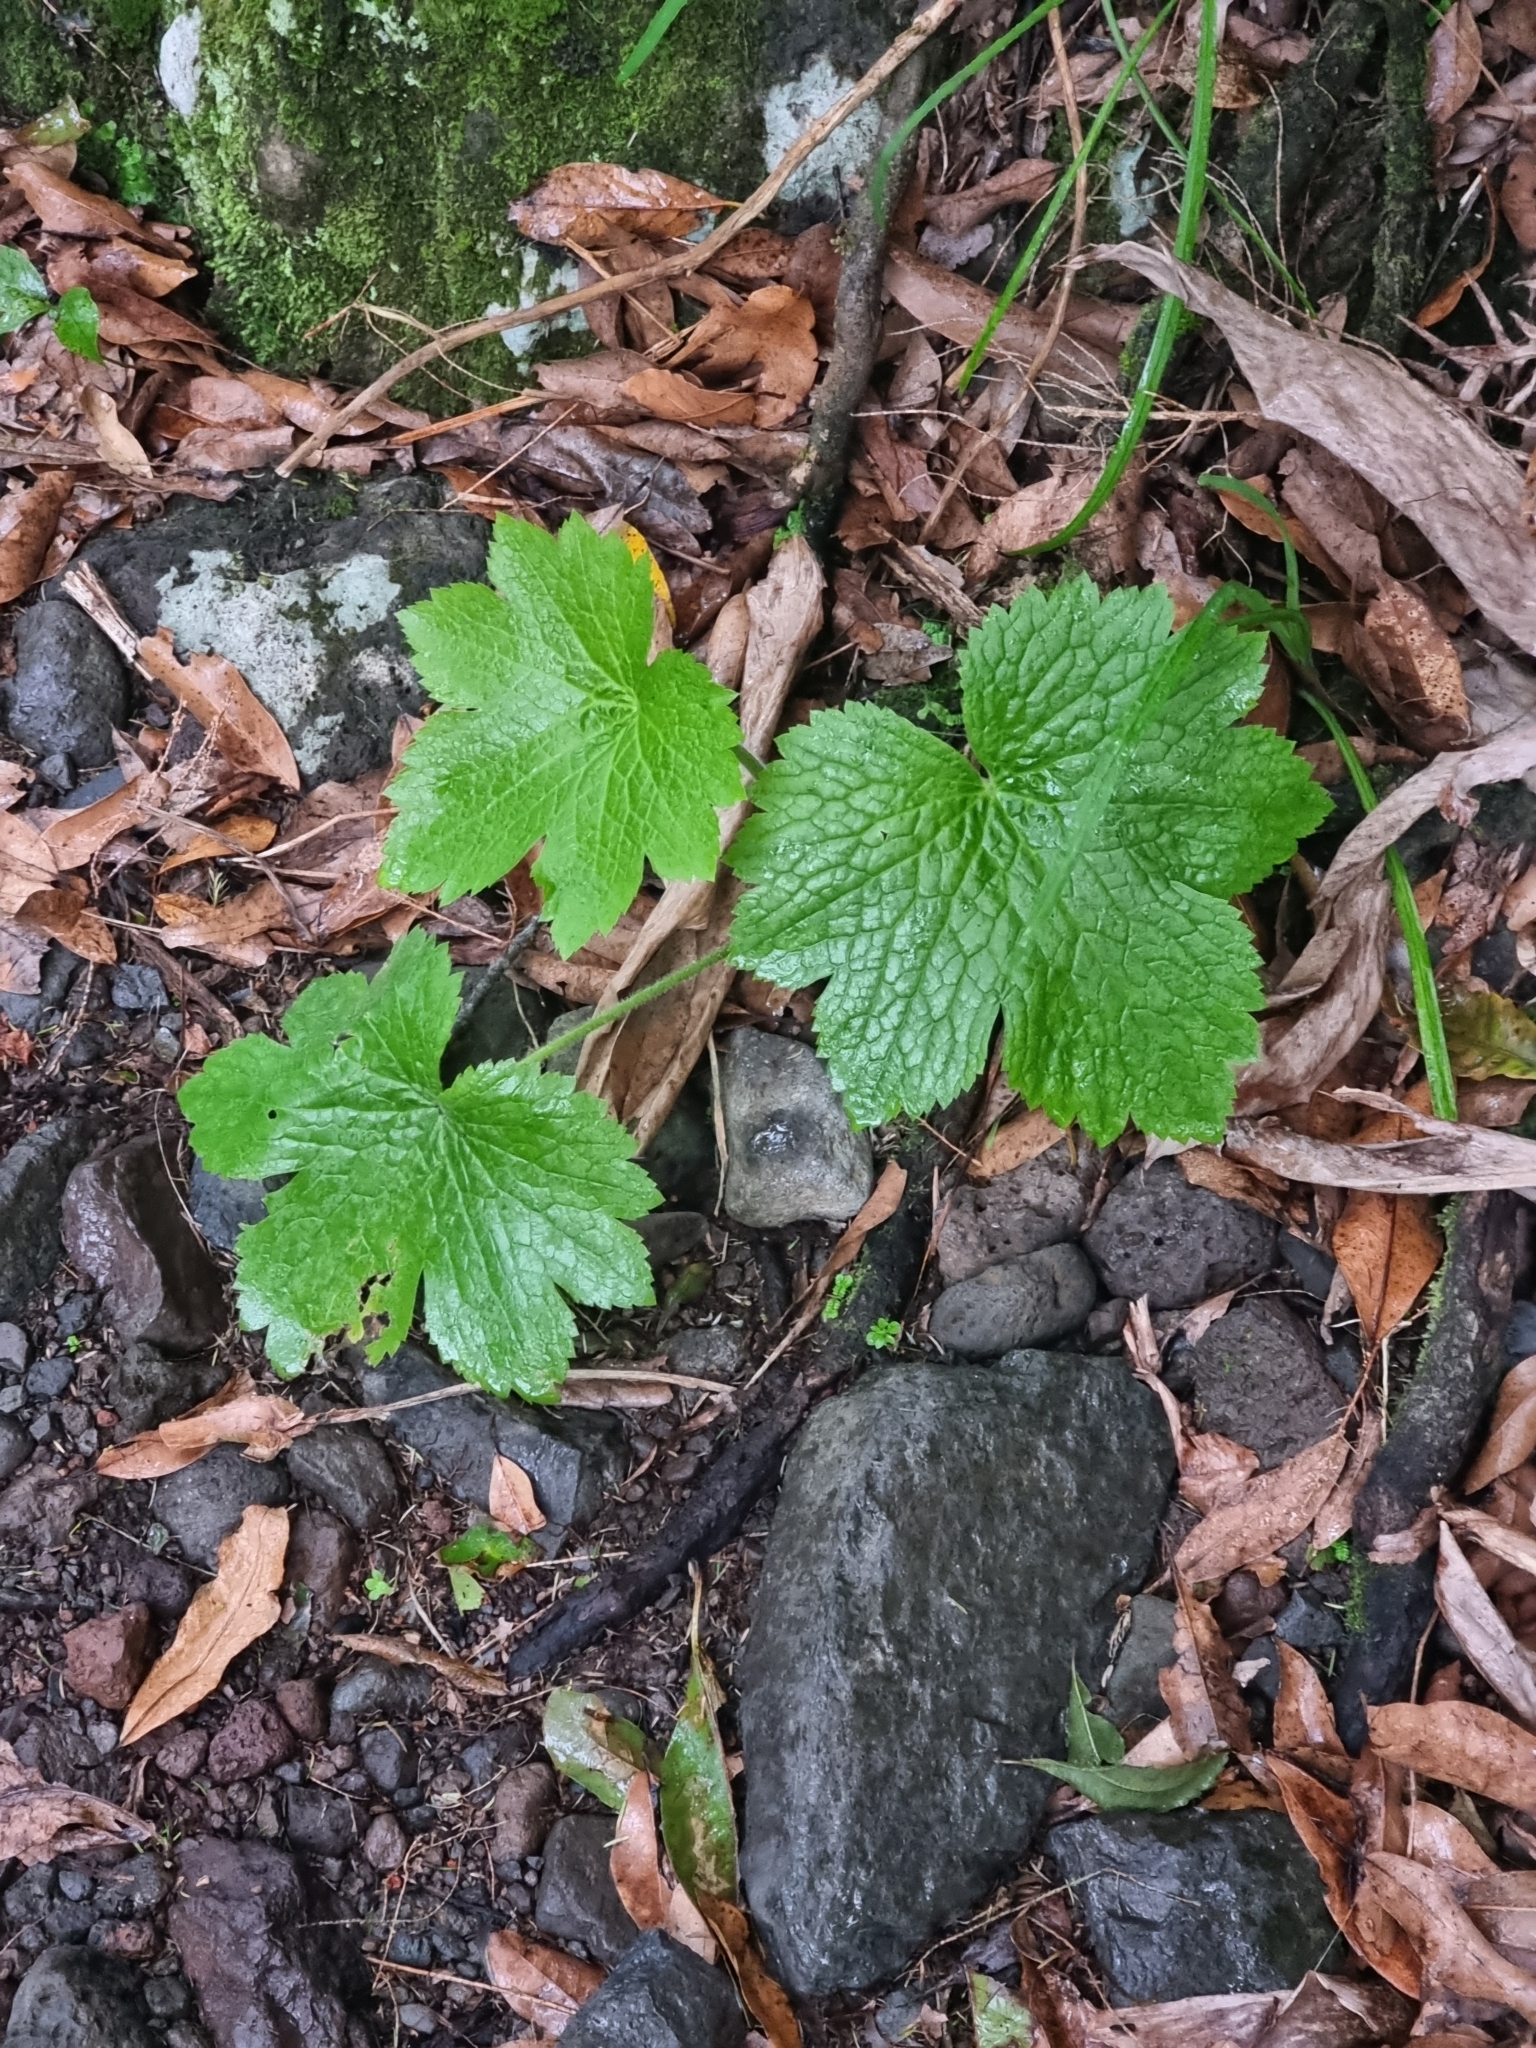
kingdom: Plantae
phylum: Tracheophyta
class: Magnoliopsida
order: Ranunculales
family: Ranunculaceae
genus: Ranunculus
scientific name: Ranunculus cortusifolius
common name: Azores buttercup
